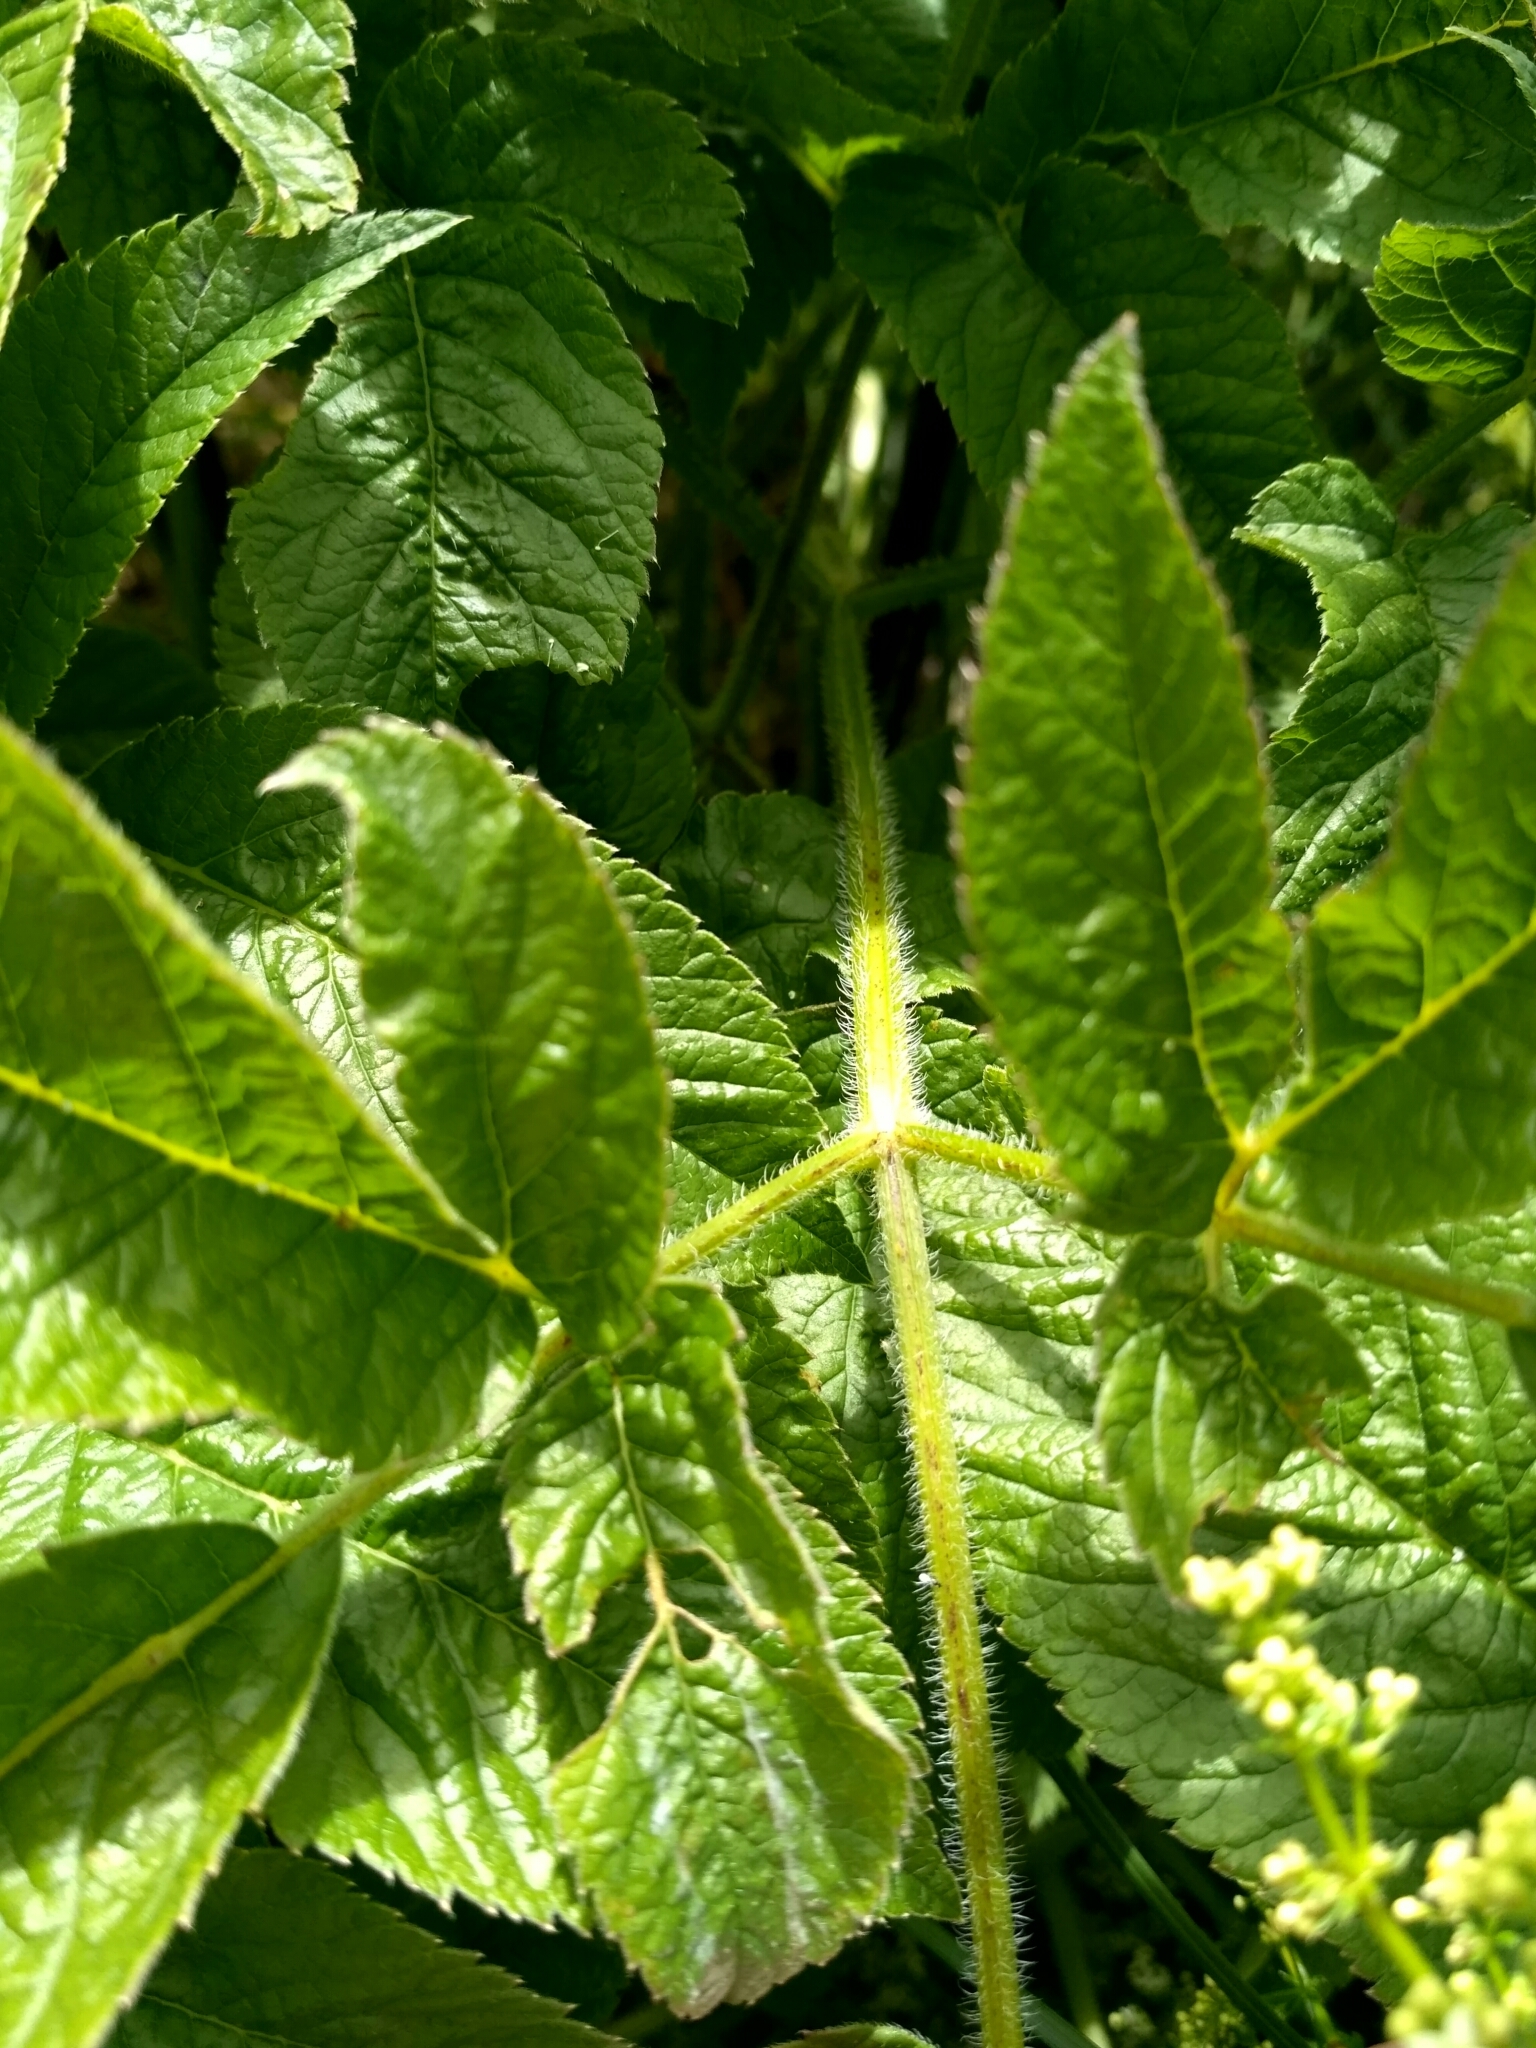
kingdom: Plantae
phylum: Tracheophyta
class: Magnoliopsida
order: Apiales
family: Apiaceae
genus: Chaerophyllum
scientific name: Chaerophyllum aromaticum
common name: Broadleaf chervil
